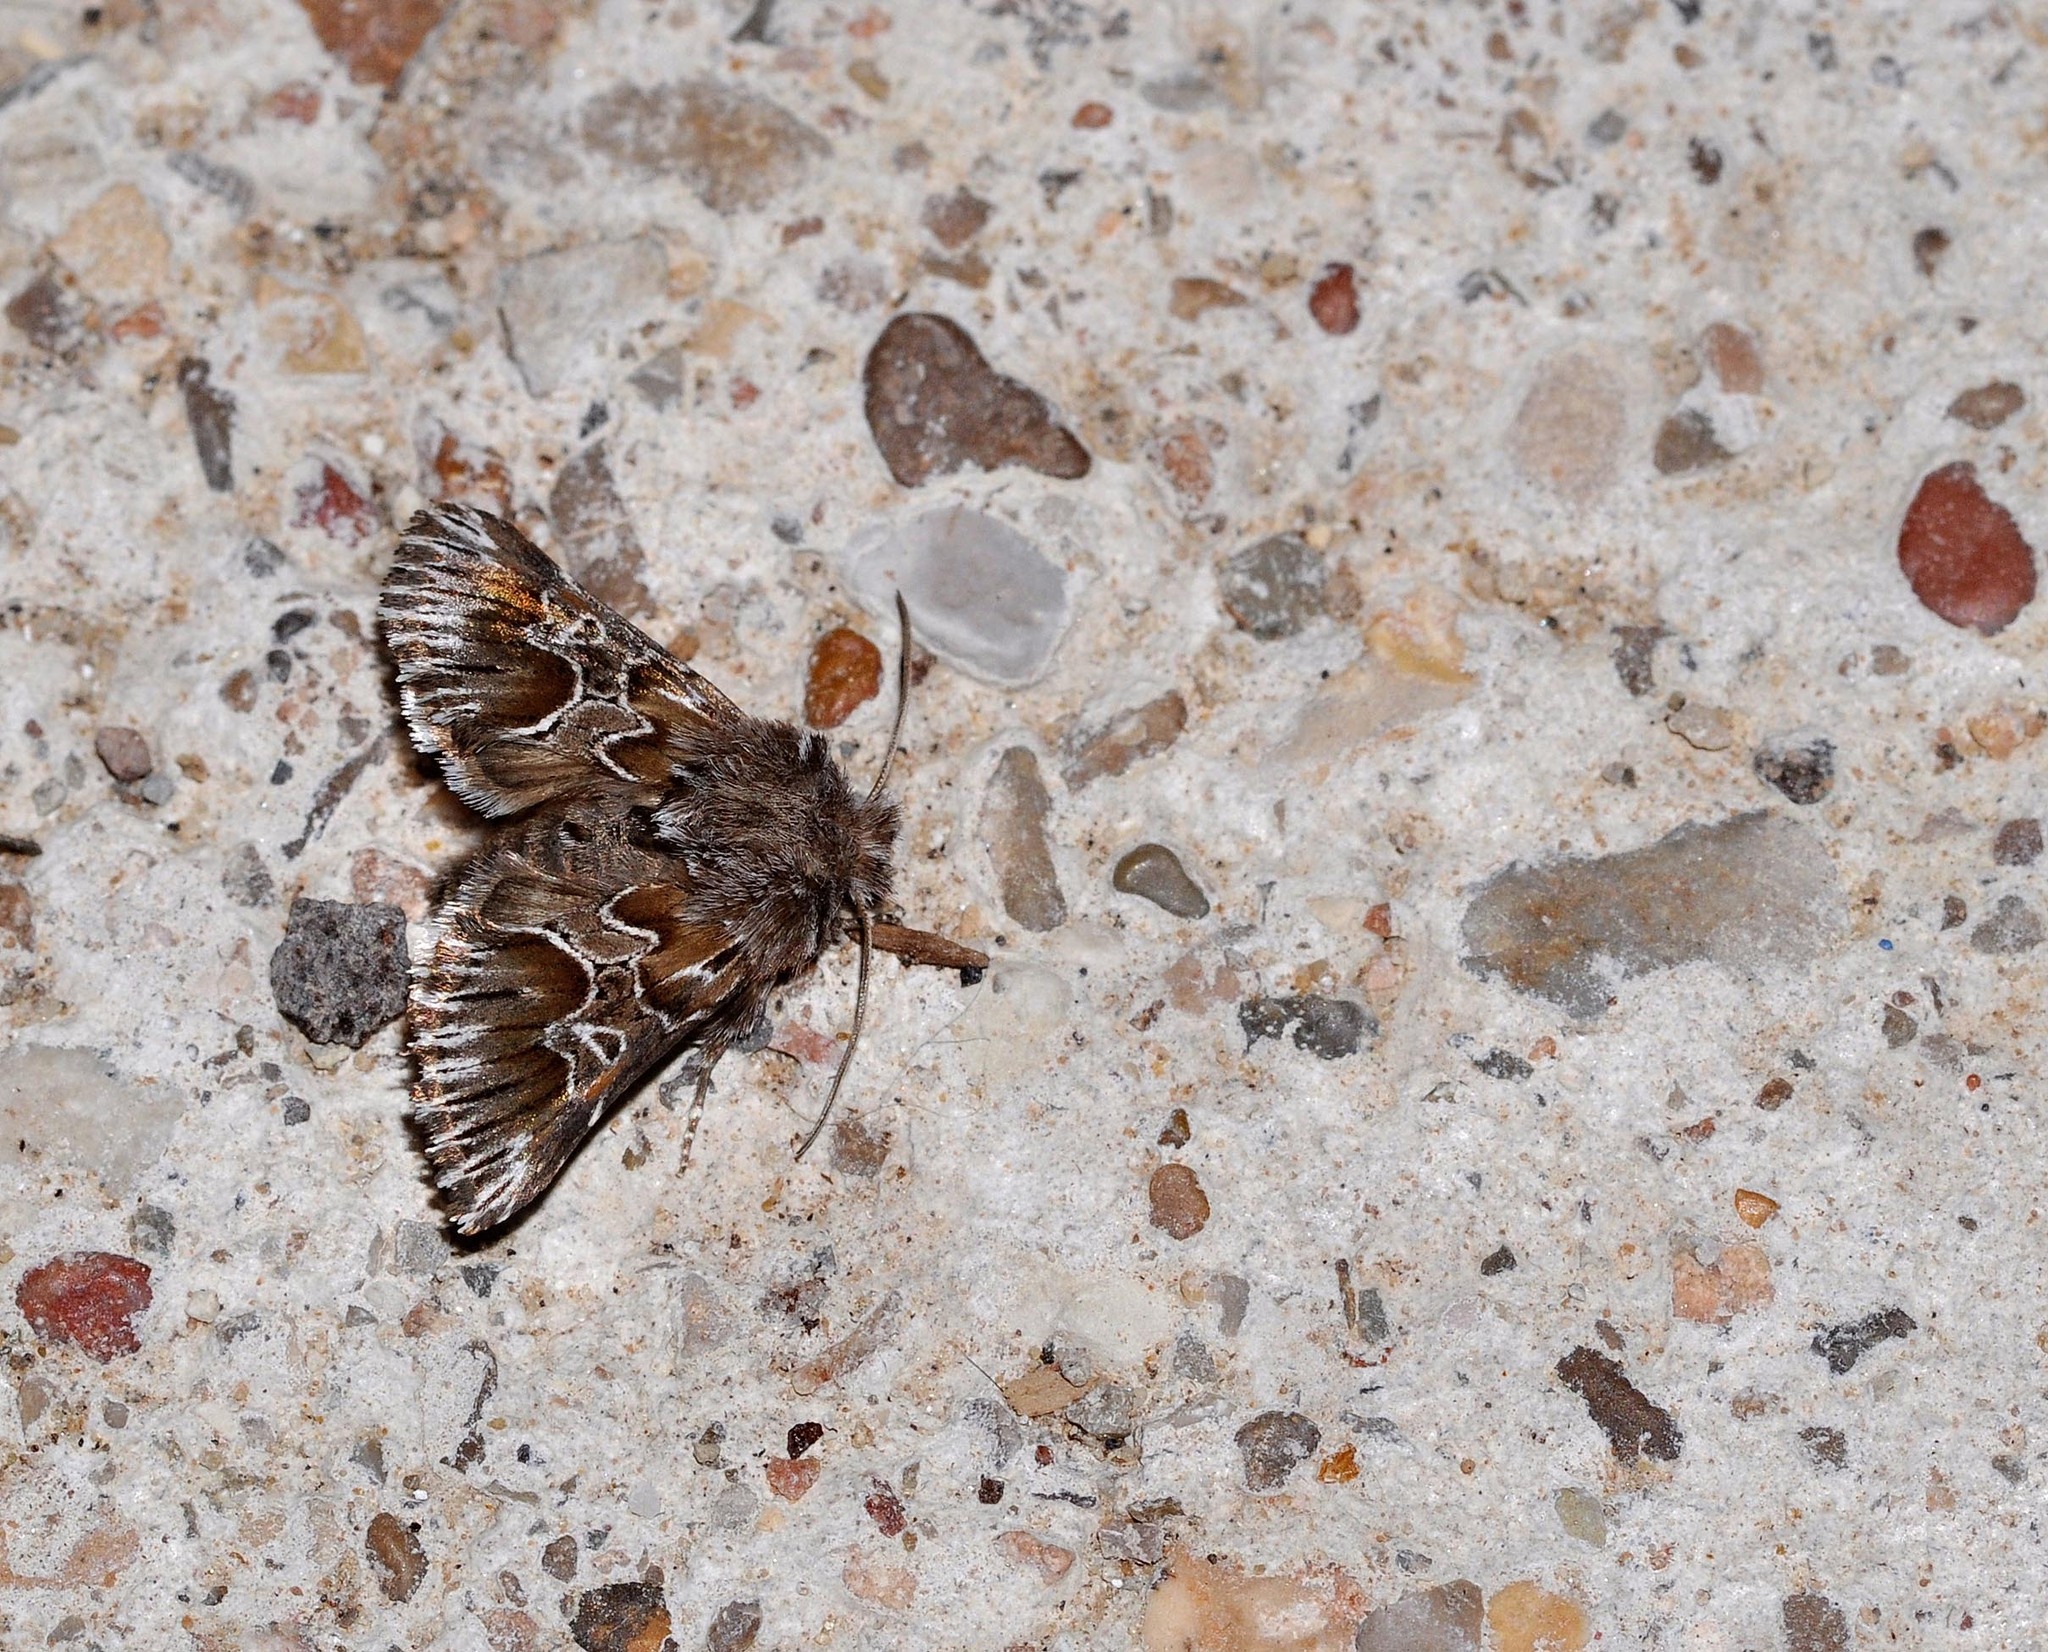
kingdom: Animalia
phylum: Arthropoda
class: Insecta
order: Lepidoptera
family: Noctuidae
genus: Amephana
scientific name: Amephana aurita
